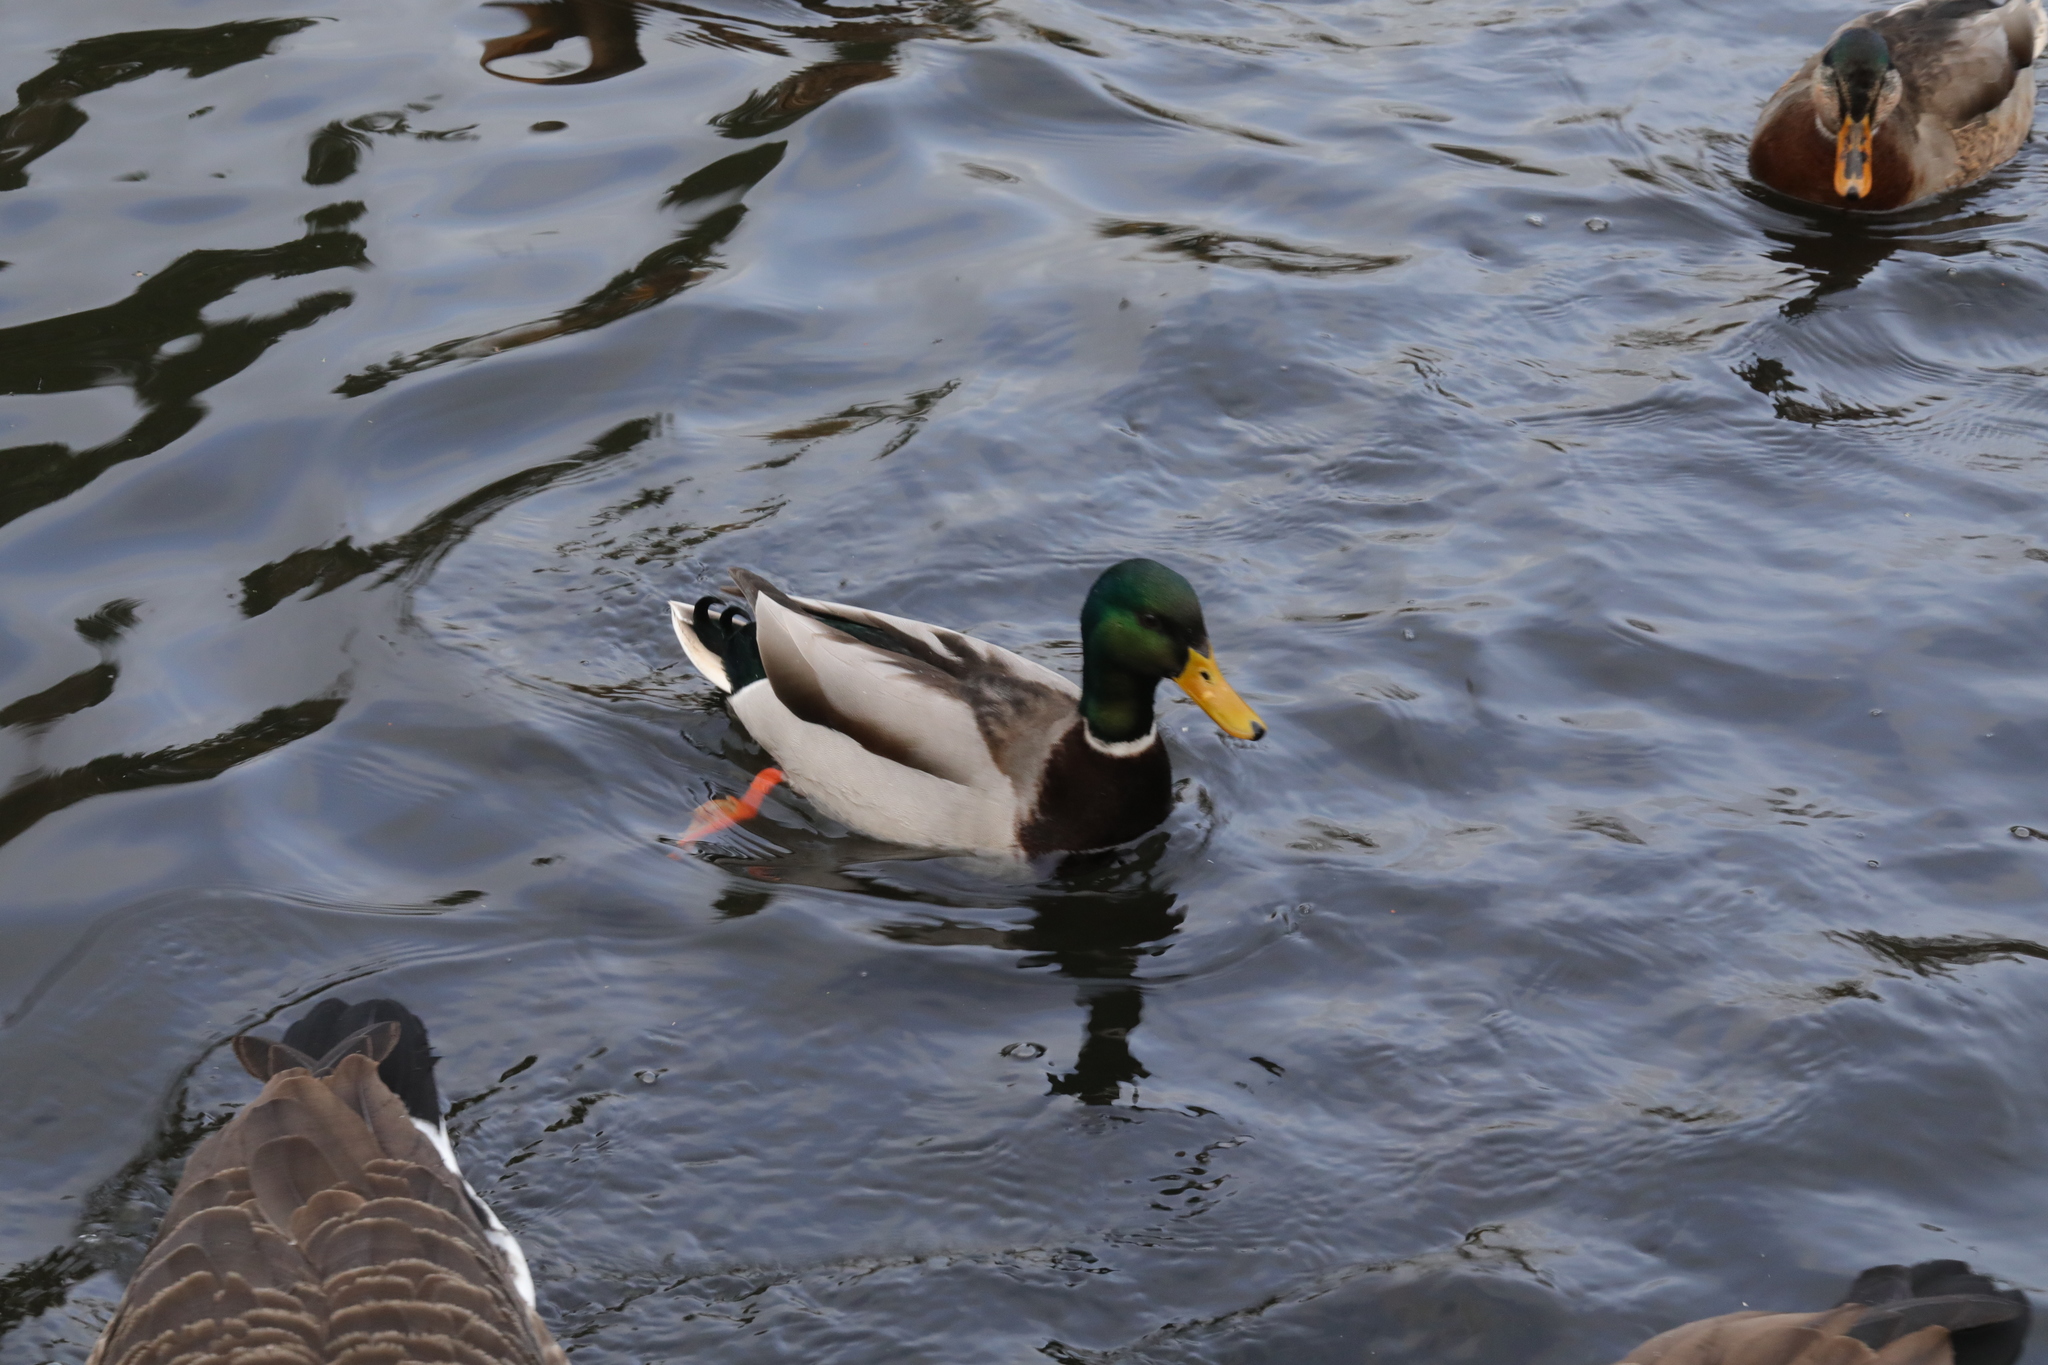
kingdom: Animalia
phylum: Chordata
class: Aves
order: Anseriformes
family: Anatidae
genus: Anas
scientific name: Anas platyrhynchos
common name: Mallard
